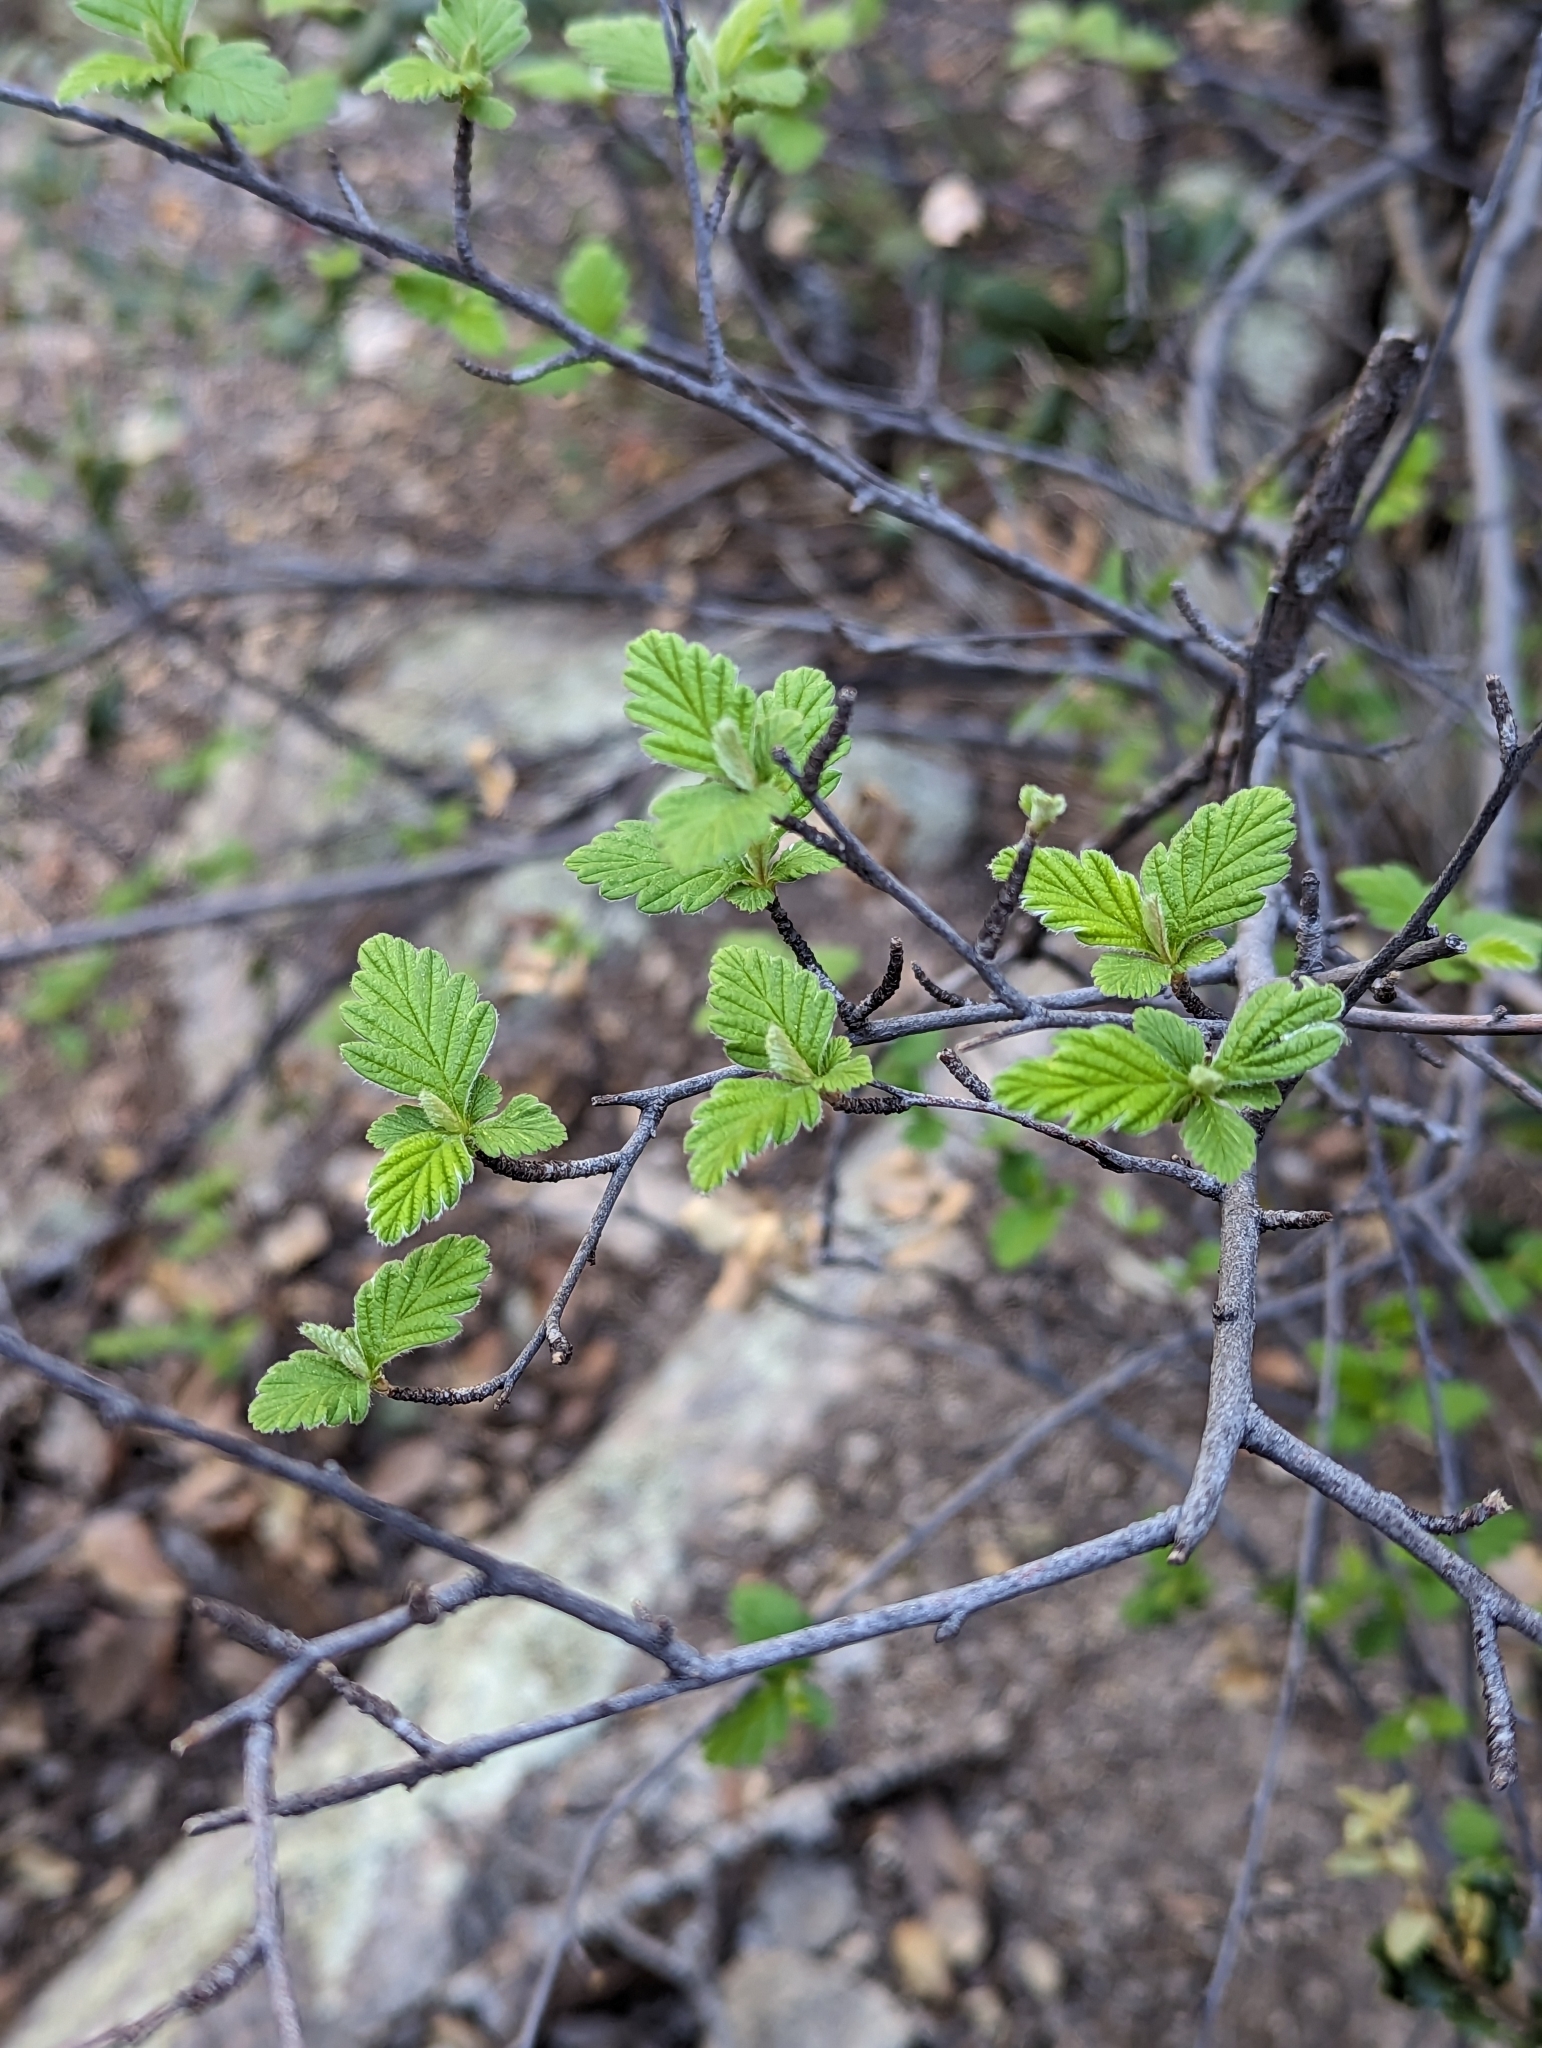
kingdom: Plantae
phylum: Tracheophyta
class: Magnoliopsida
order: Rosales
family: Rosaceae
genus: Holodiscus
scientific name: Holodiscus discolor
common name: Oceanspray
